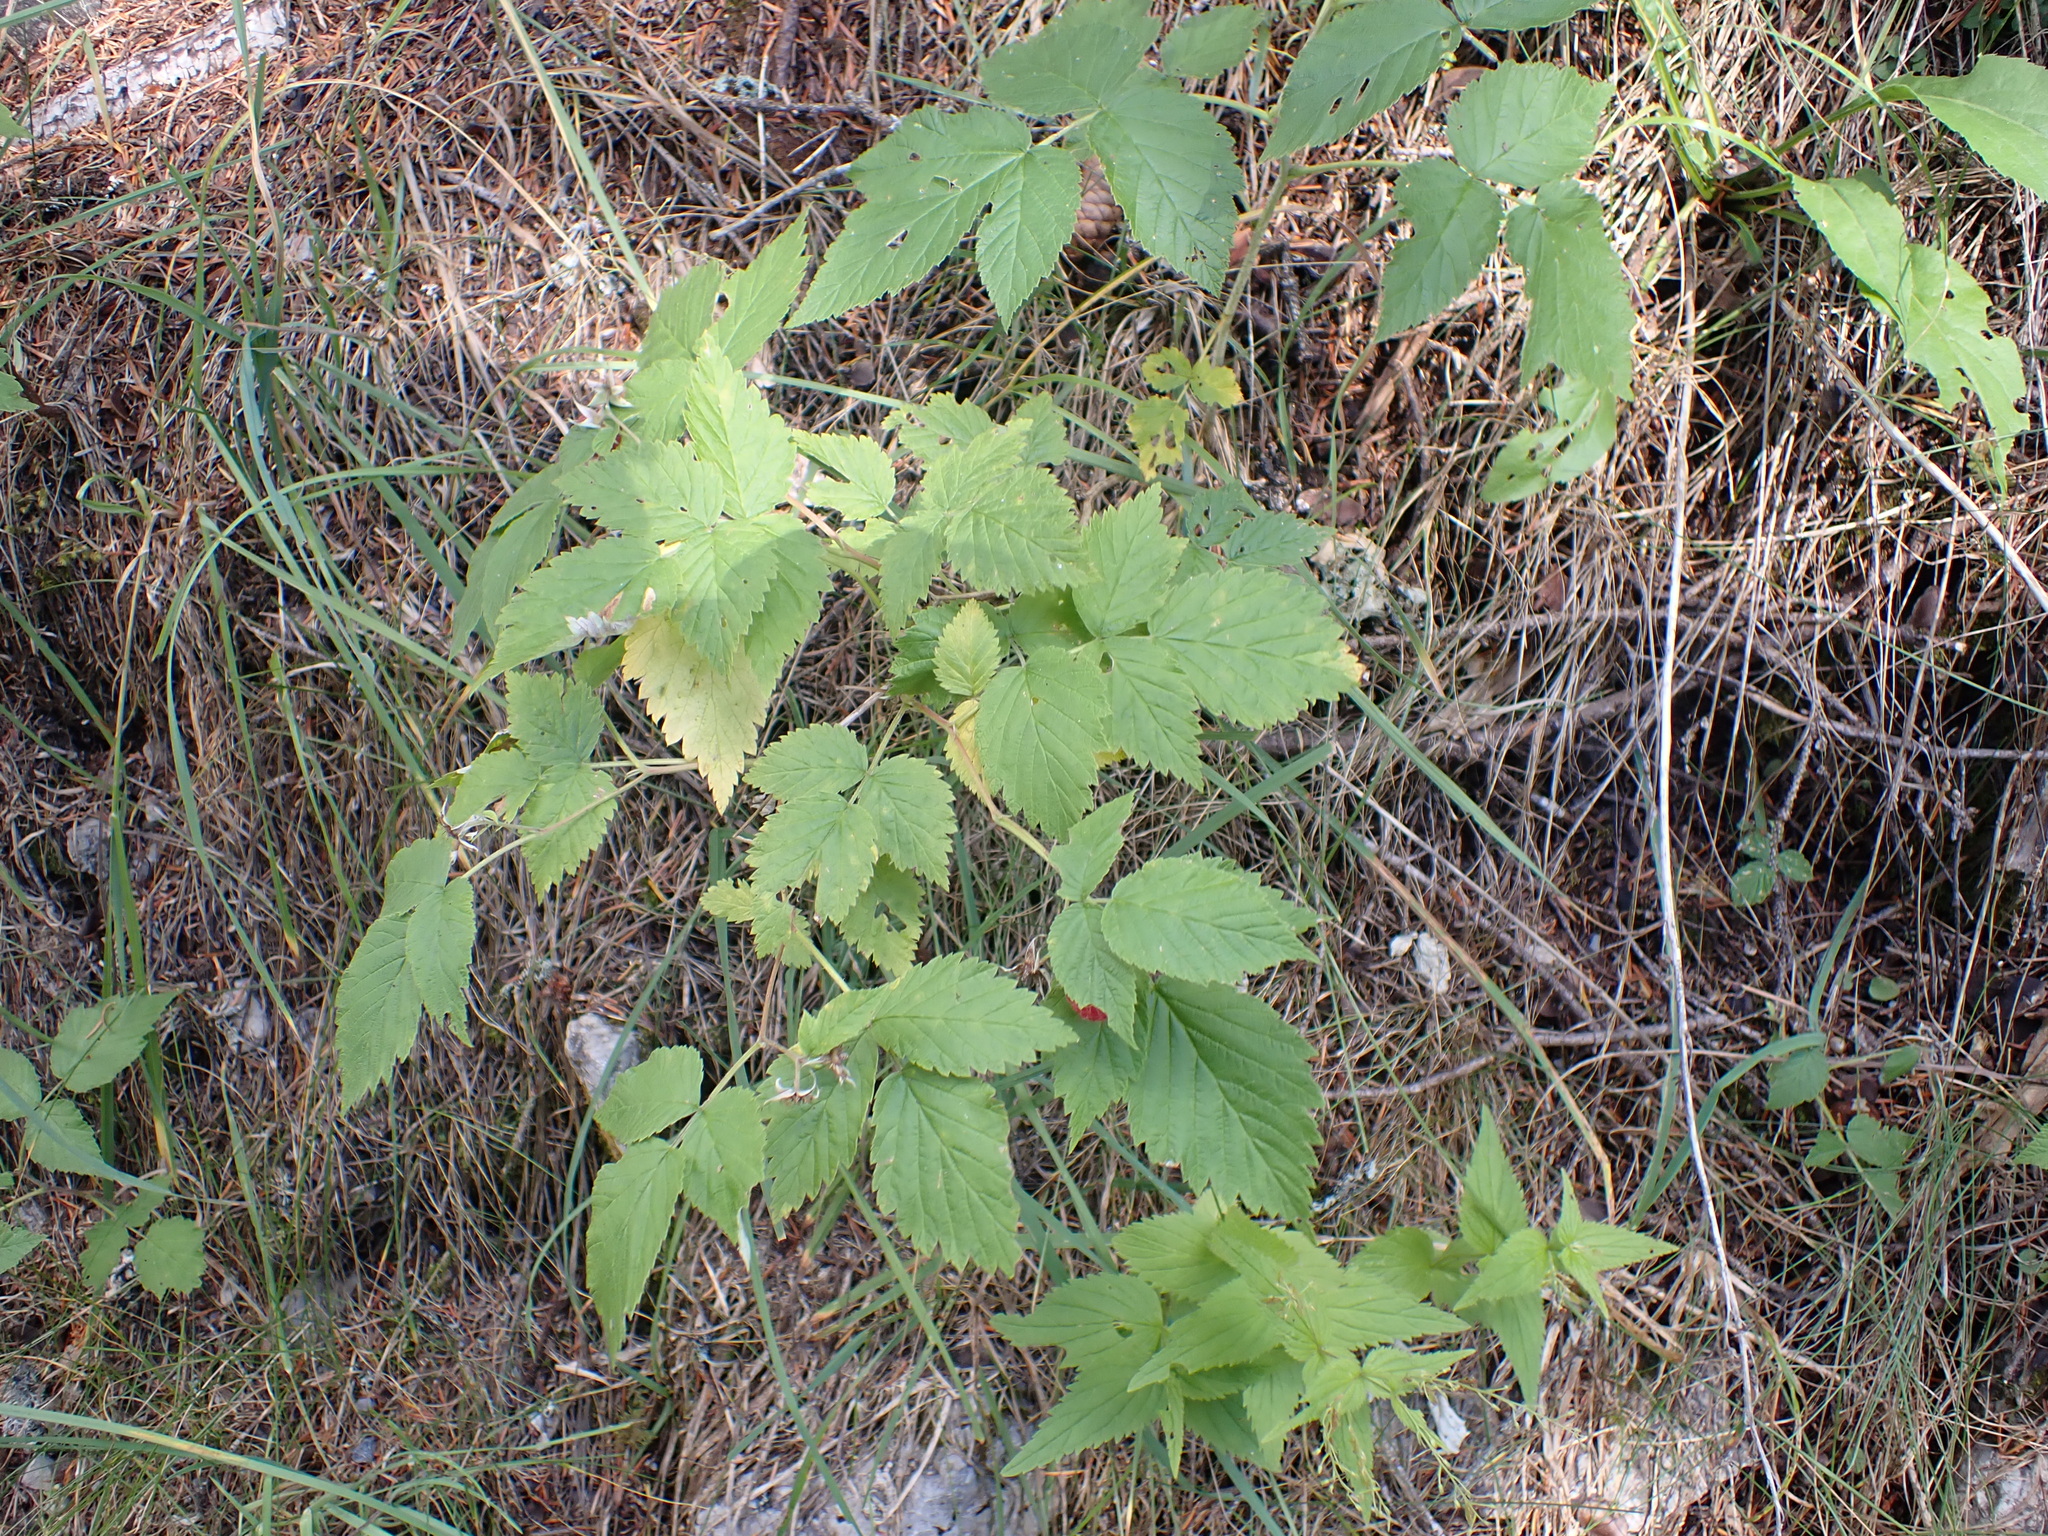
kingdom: Plantae
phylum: Tracheophyta
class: Magnoliopsida
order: Rosales
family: Rosaceae
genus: Rubus
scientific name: Rubus idaeus
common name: Raspberry
